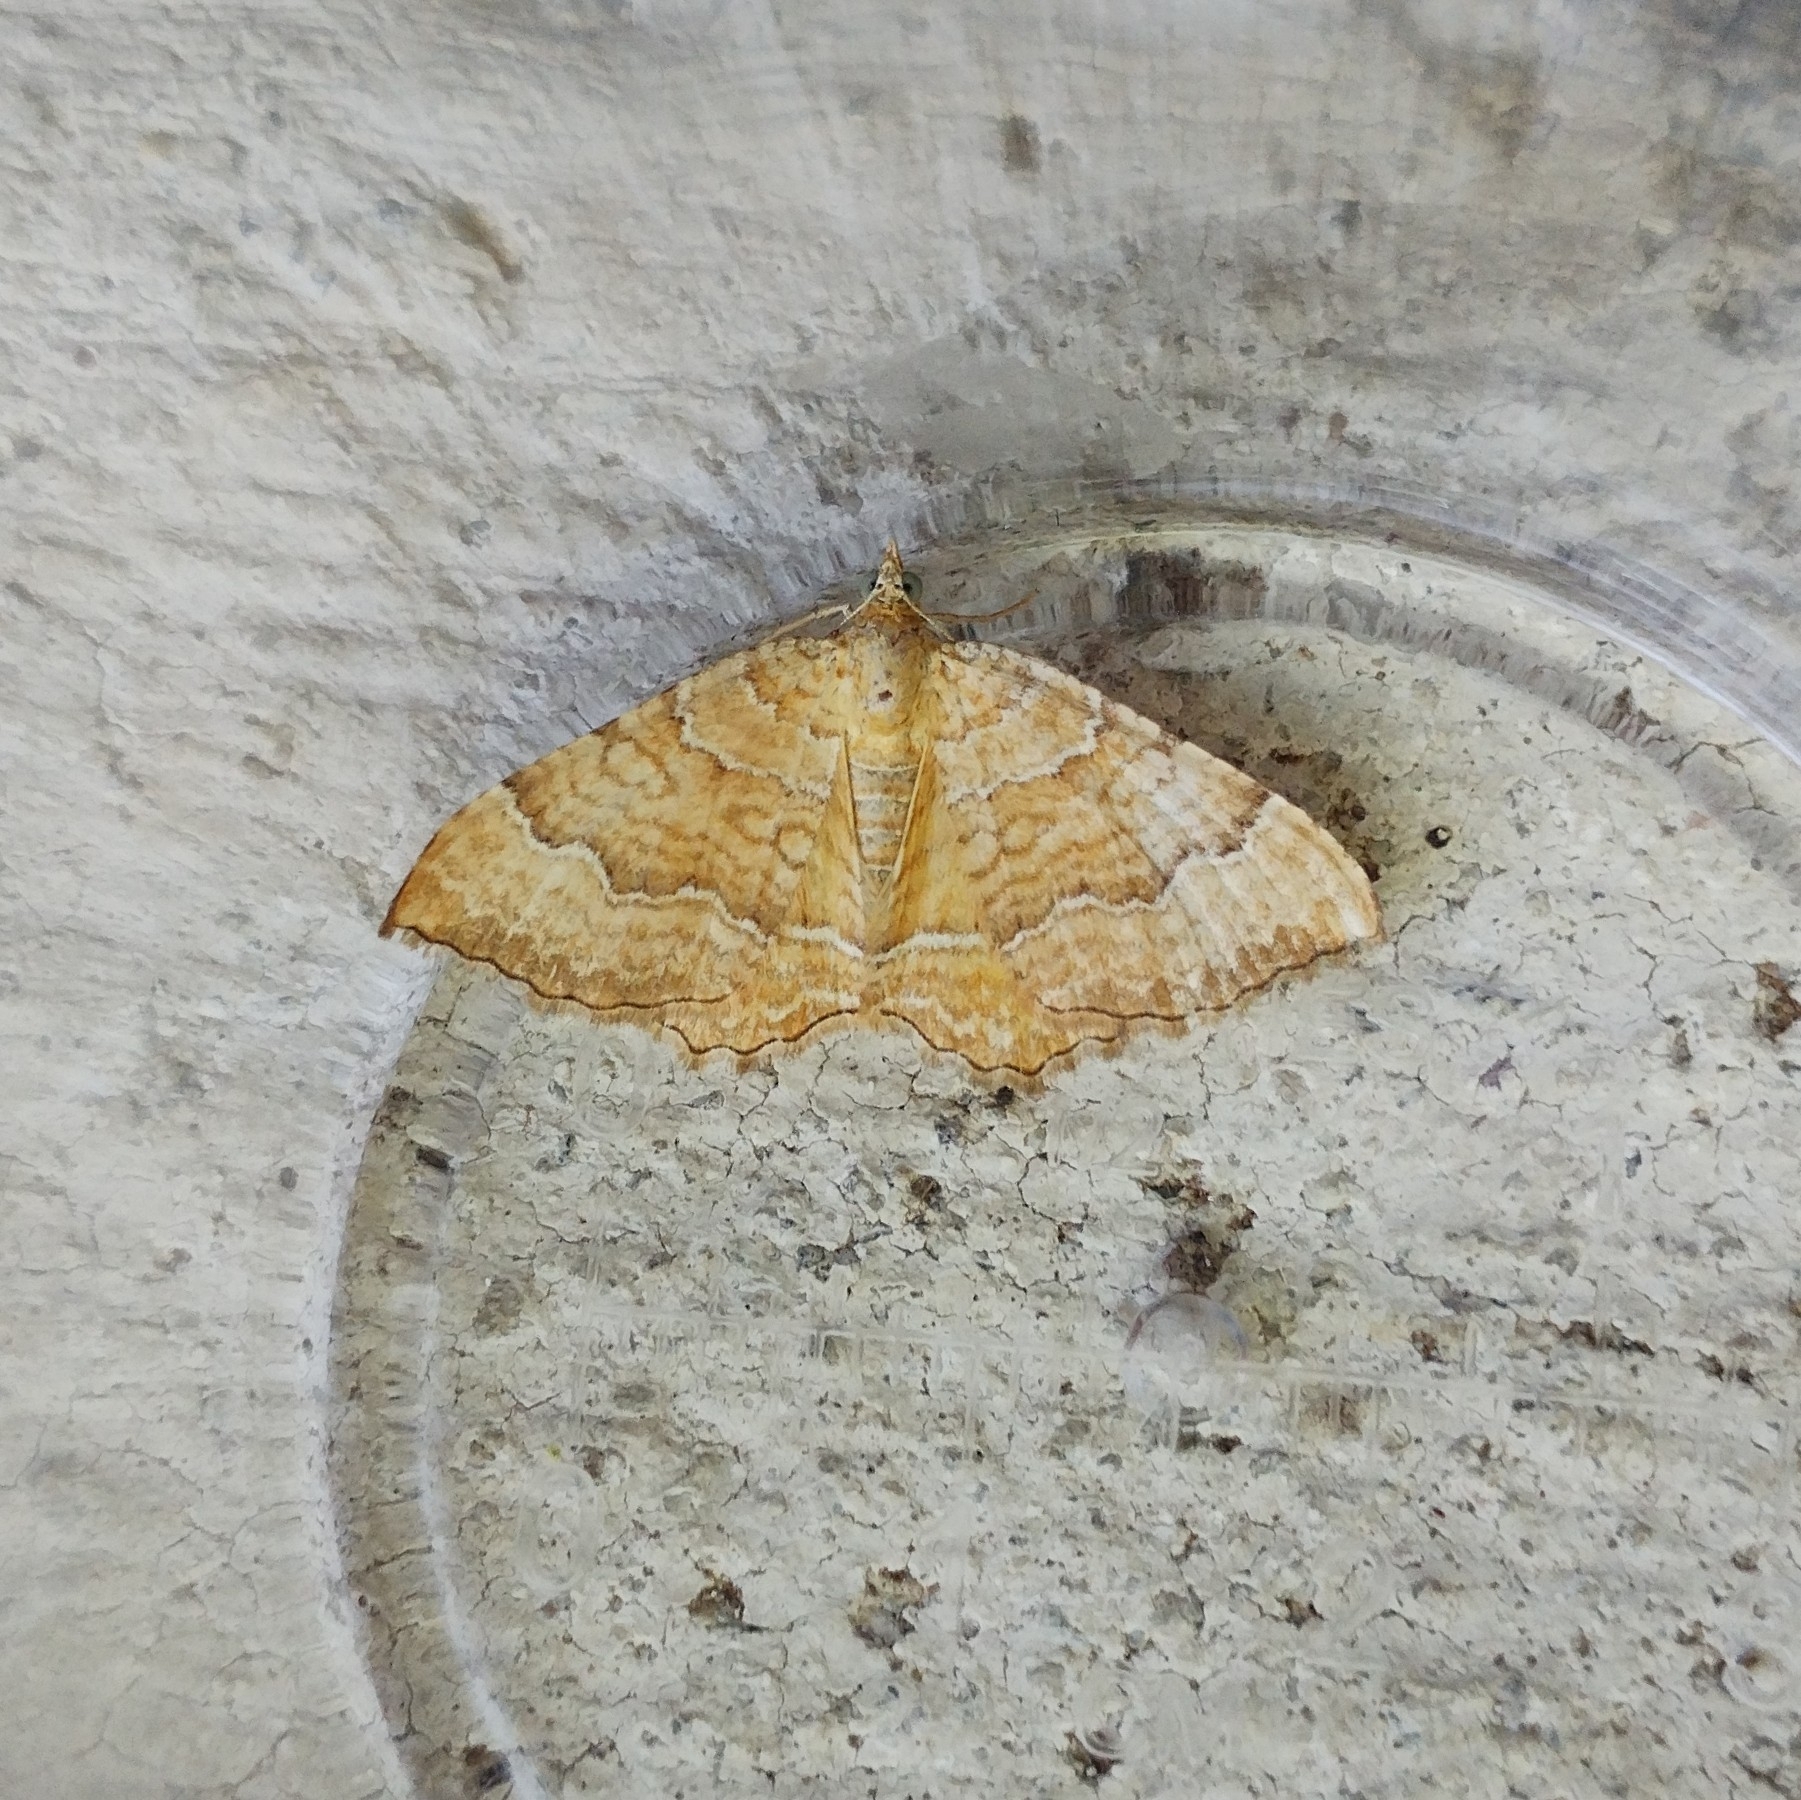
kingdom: Animalia
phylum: Arthropoda
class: Insecta
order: Lepidoptera
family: Geometridae
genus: Camptogramma
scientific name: Camptogramma bilineata
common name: Yellow shell
